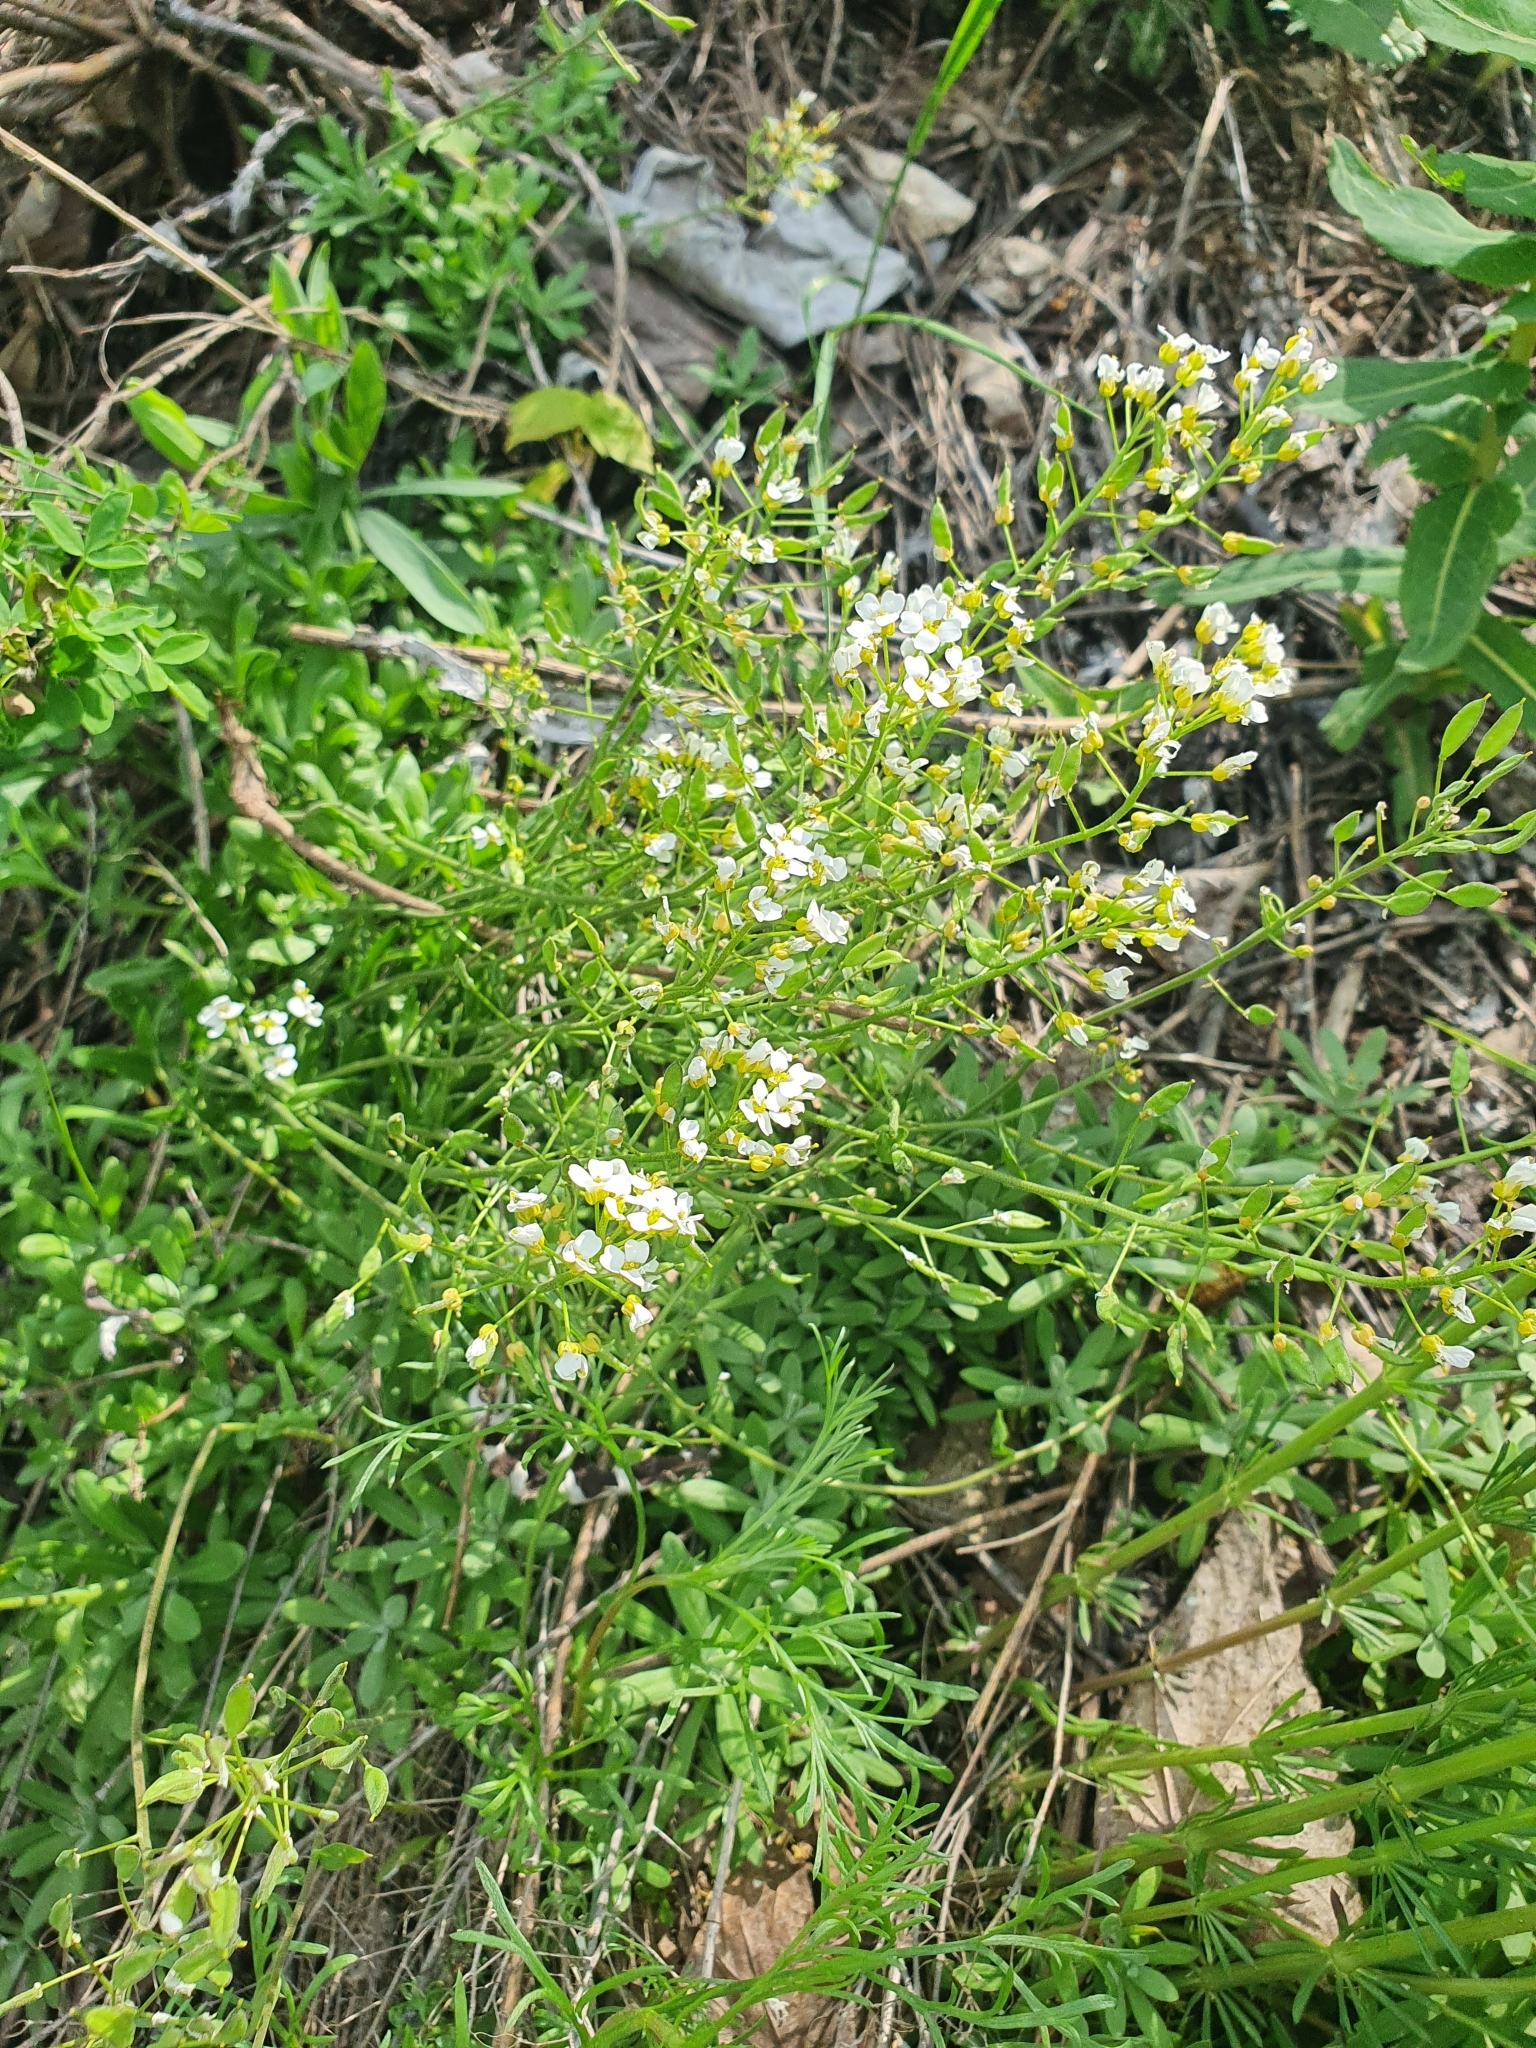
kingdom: Plantae
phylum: Tracheophyta
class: Magnoliopsida
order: Brassicales
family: Brassicaceae
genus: Draba
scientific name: Draba hyperborea
